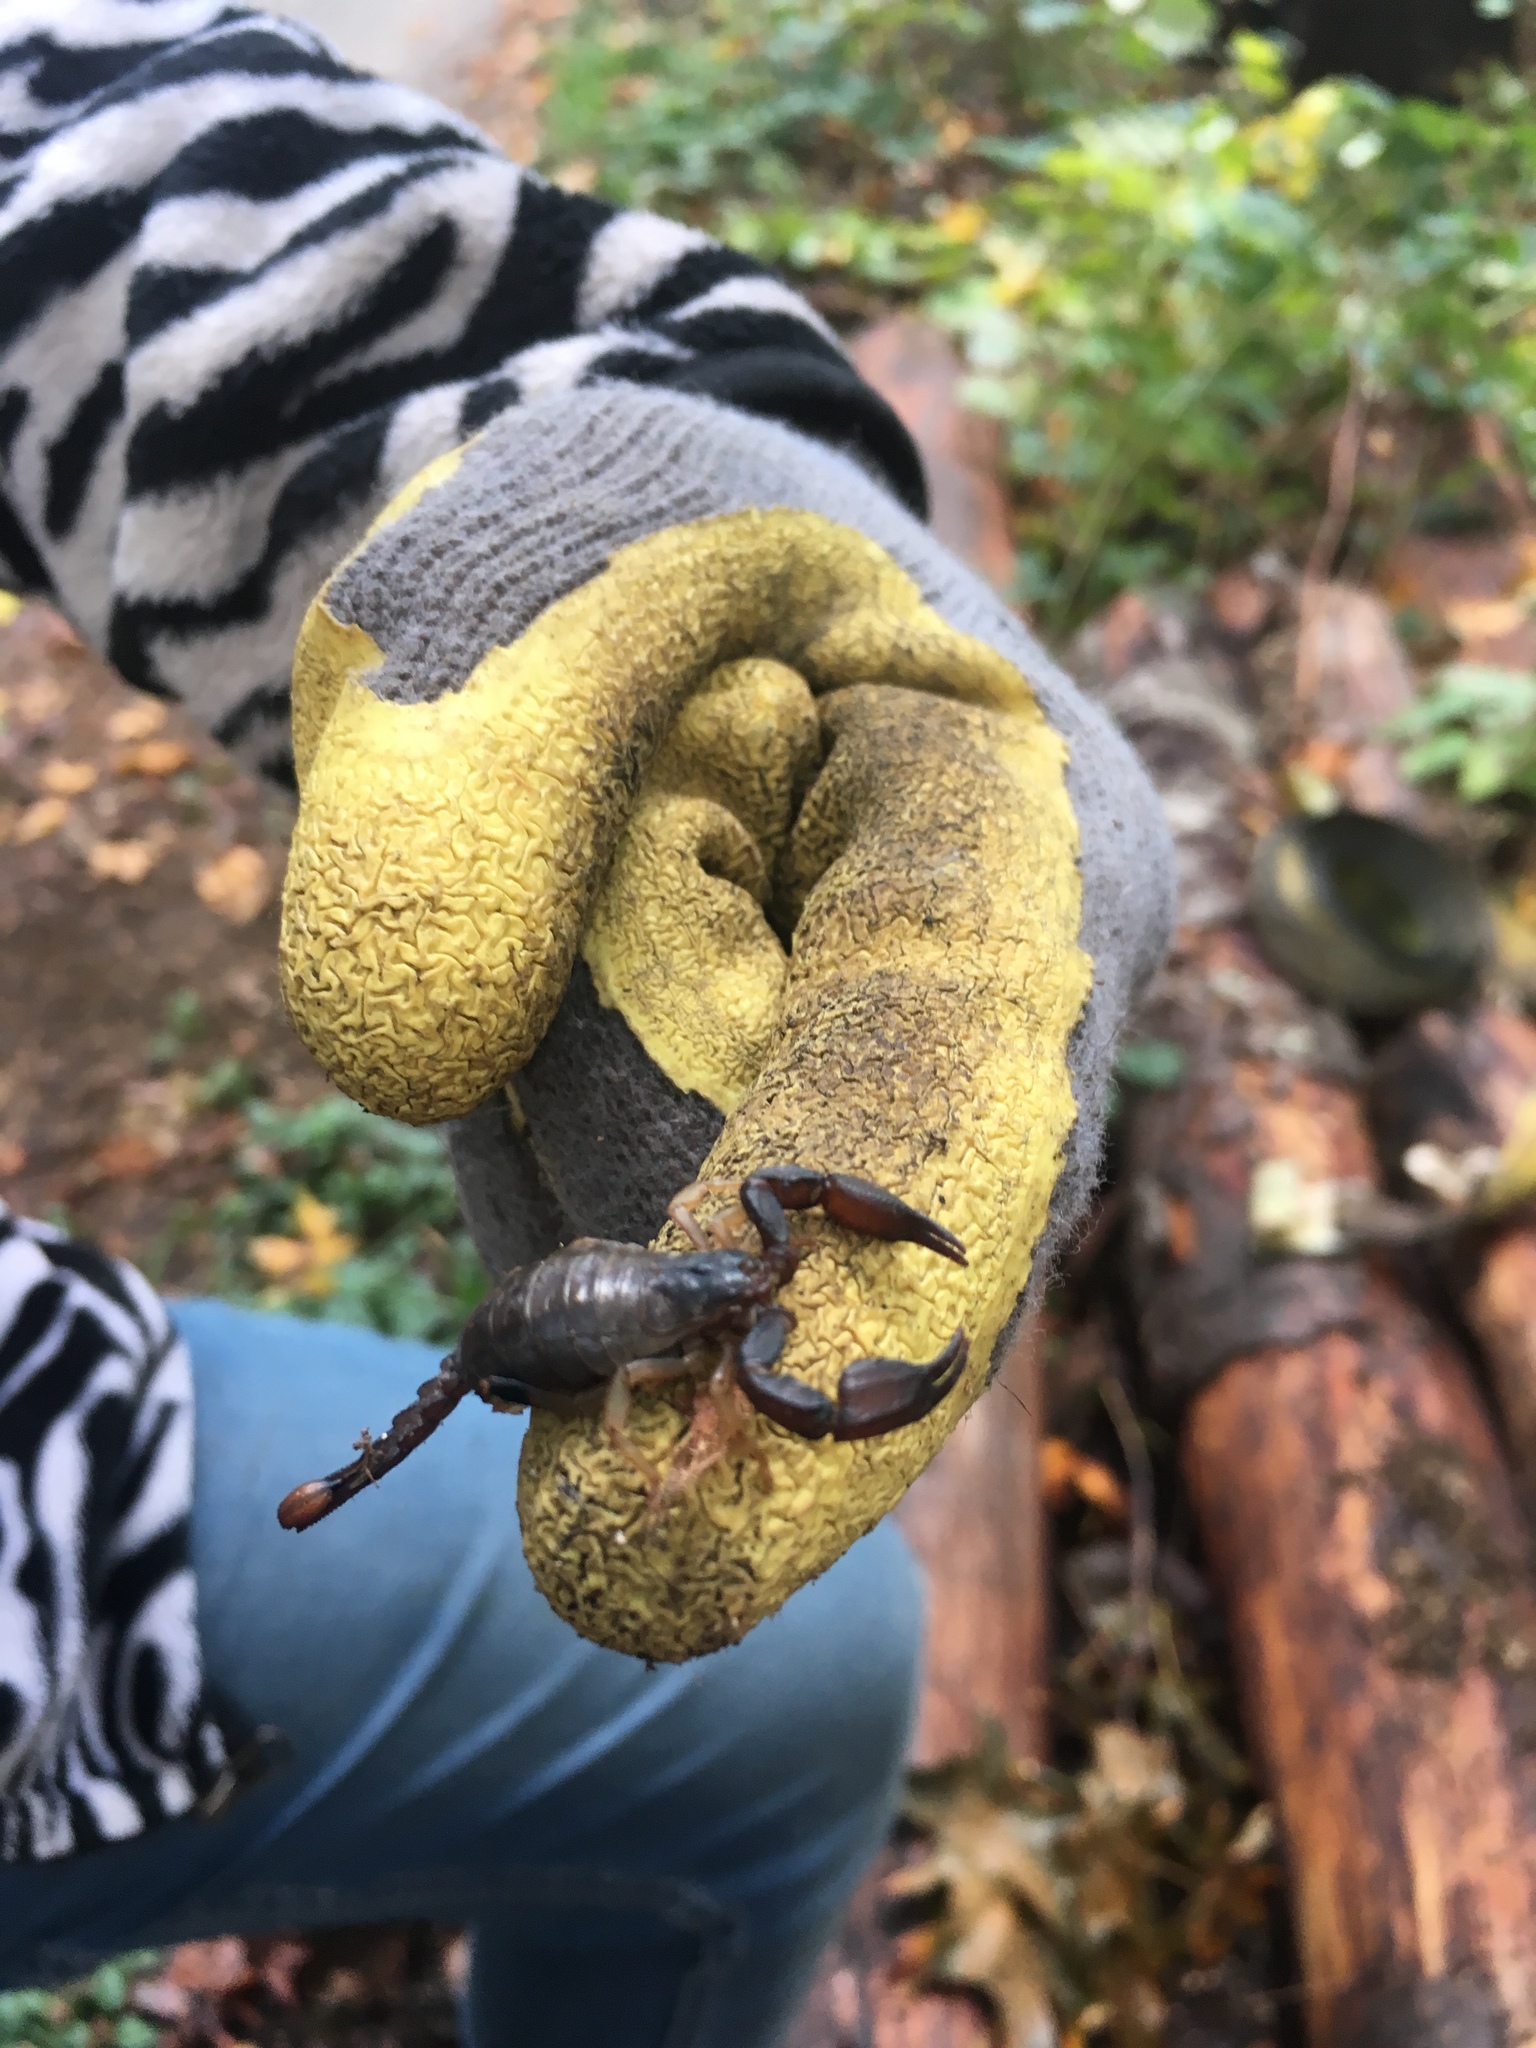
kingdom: Animalia
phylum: Arthropoda
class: Arachnida
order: Scorpiones
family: Chactidae
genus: Uroctonus
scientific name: Uroctonus mordax
